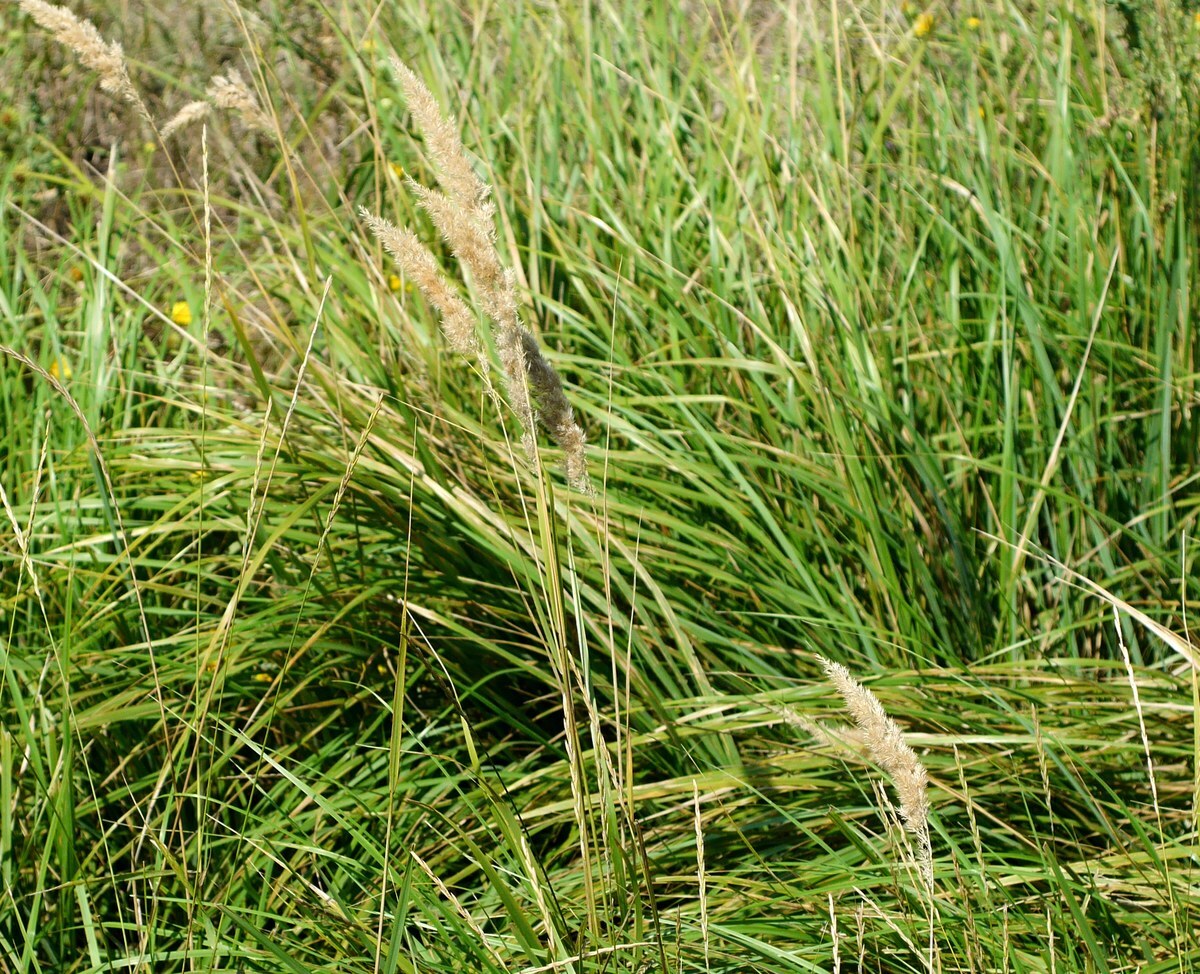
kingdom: Plantae
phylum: Tracheophyta
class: Liliopsida
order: Poales
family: Poaceae
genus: Calamagrostis
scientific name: Calamagrostis epigejos
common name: Wood small-reed
